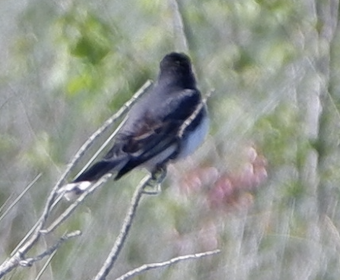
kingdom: Animalia
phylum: Chordata
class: Aves
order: Passeriformes
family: Tyrannidae
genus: Tyrannus
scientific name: Tyrannus tyrannus
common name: Eastern kingbird
